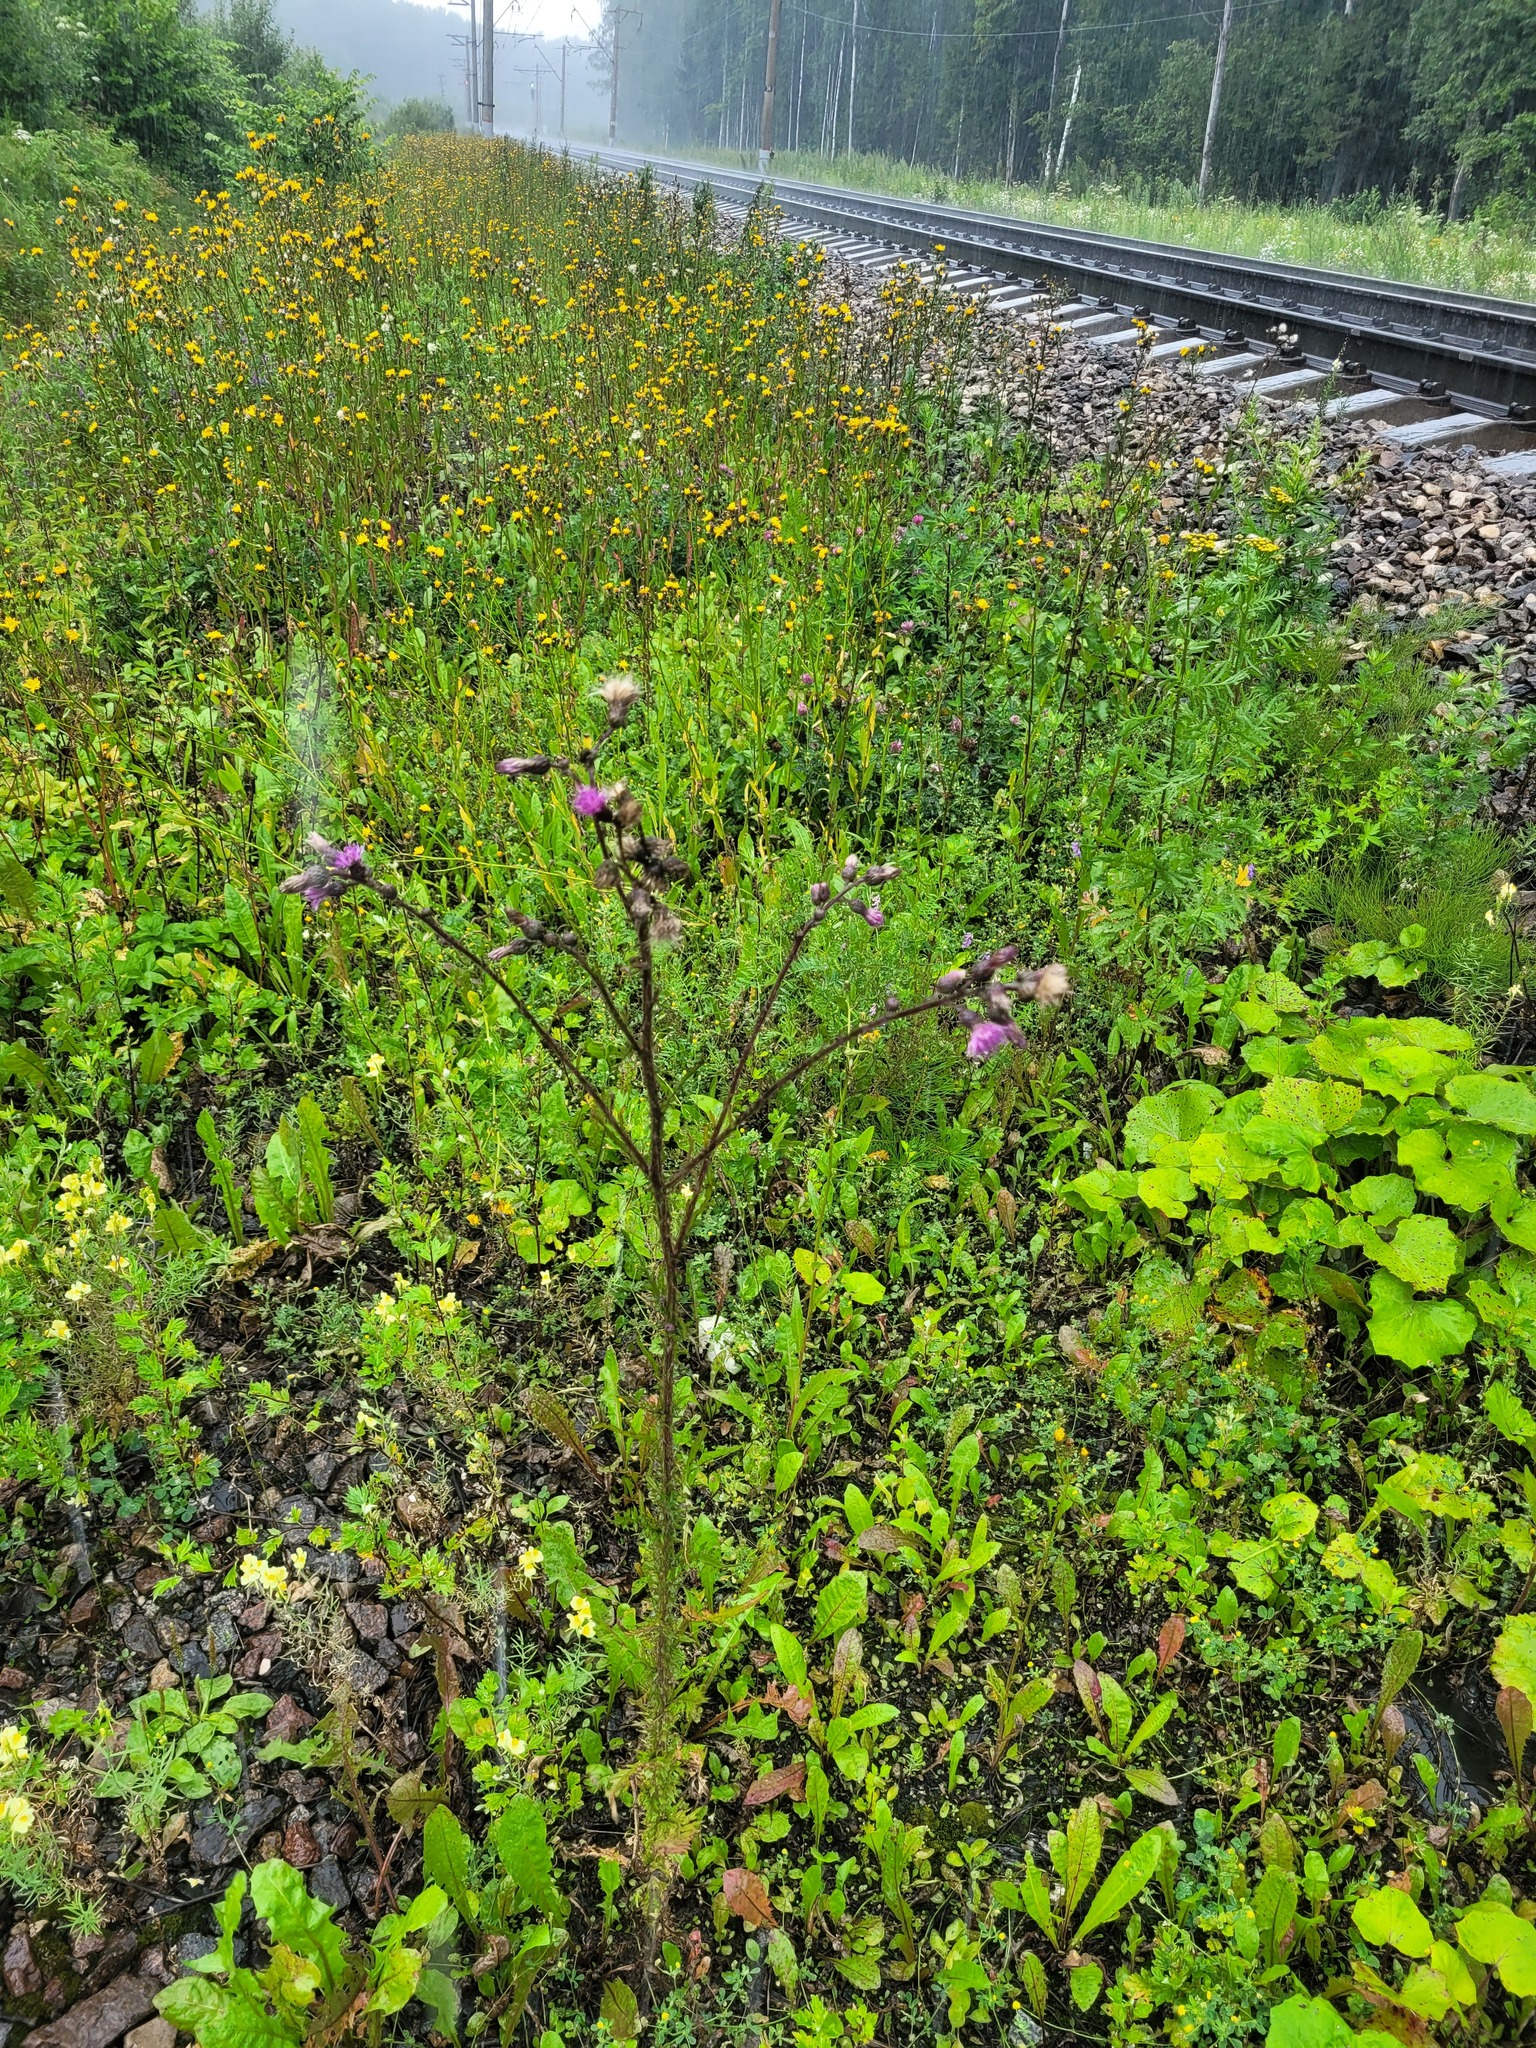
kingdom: Plantae
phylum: Tracheophyta
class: Magnoliopsida
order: Asterales
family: Asteraceae
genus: Cirsium
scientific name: Cirsium palustre
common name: Marsh thistle
